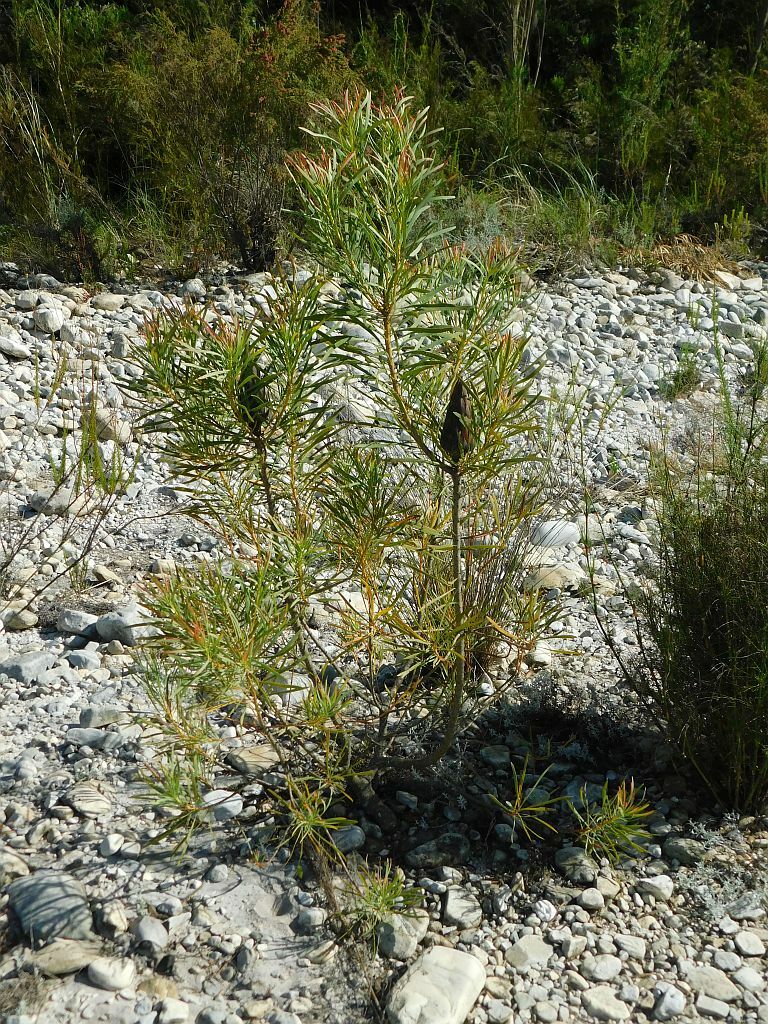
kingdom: Plantae
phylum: Tracheophyta
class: Magnoliopsida
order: Proteales
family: Proteaceae
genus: Protea
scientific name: Protea repens
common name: Sugarbush
